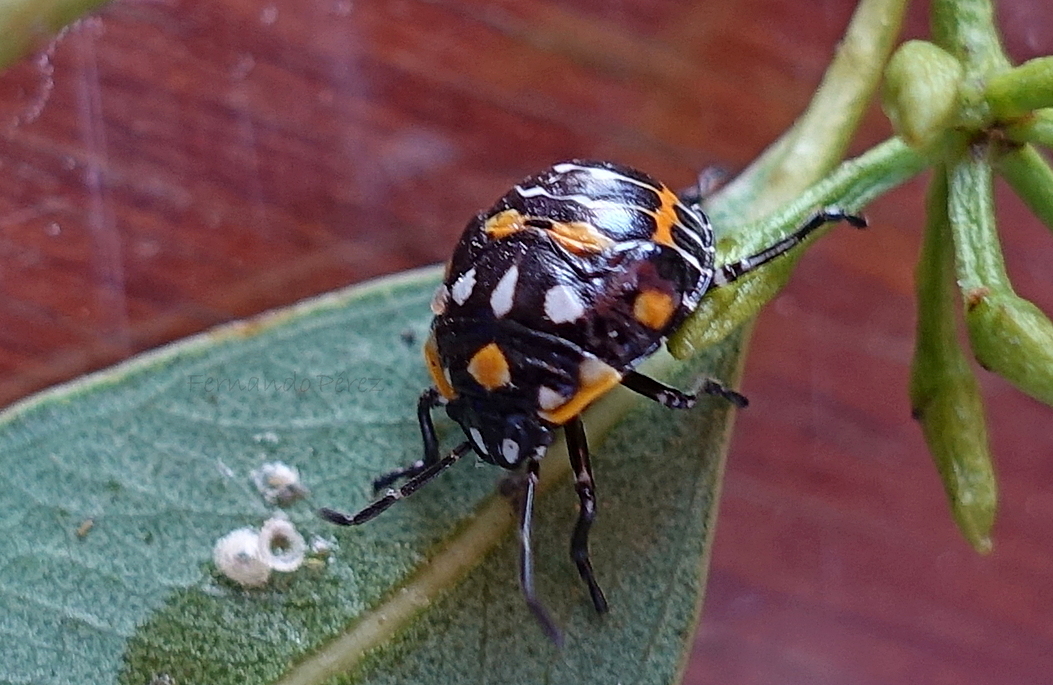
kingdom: Animalia
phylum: Arthropoda
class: Insecta
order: Hemiptera
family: Pentatomidae
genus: Murgantia
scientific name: Murgantia histrionica
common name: Harlequin bug
